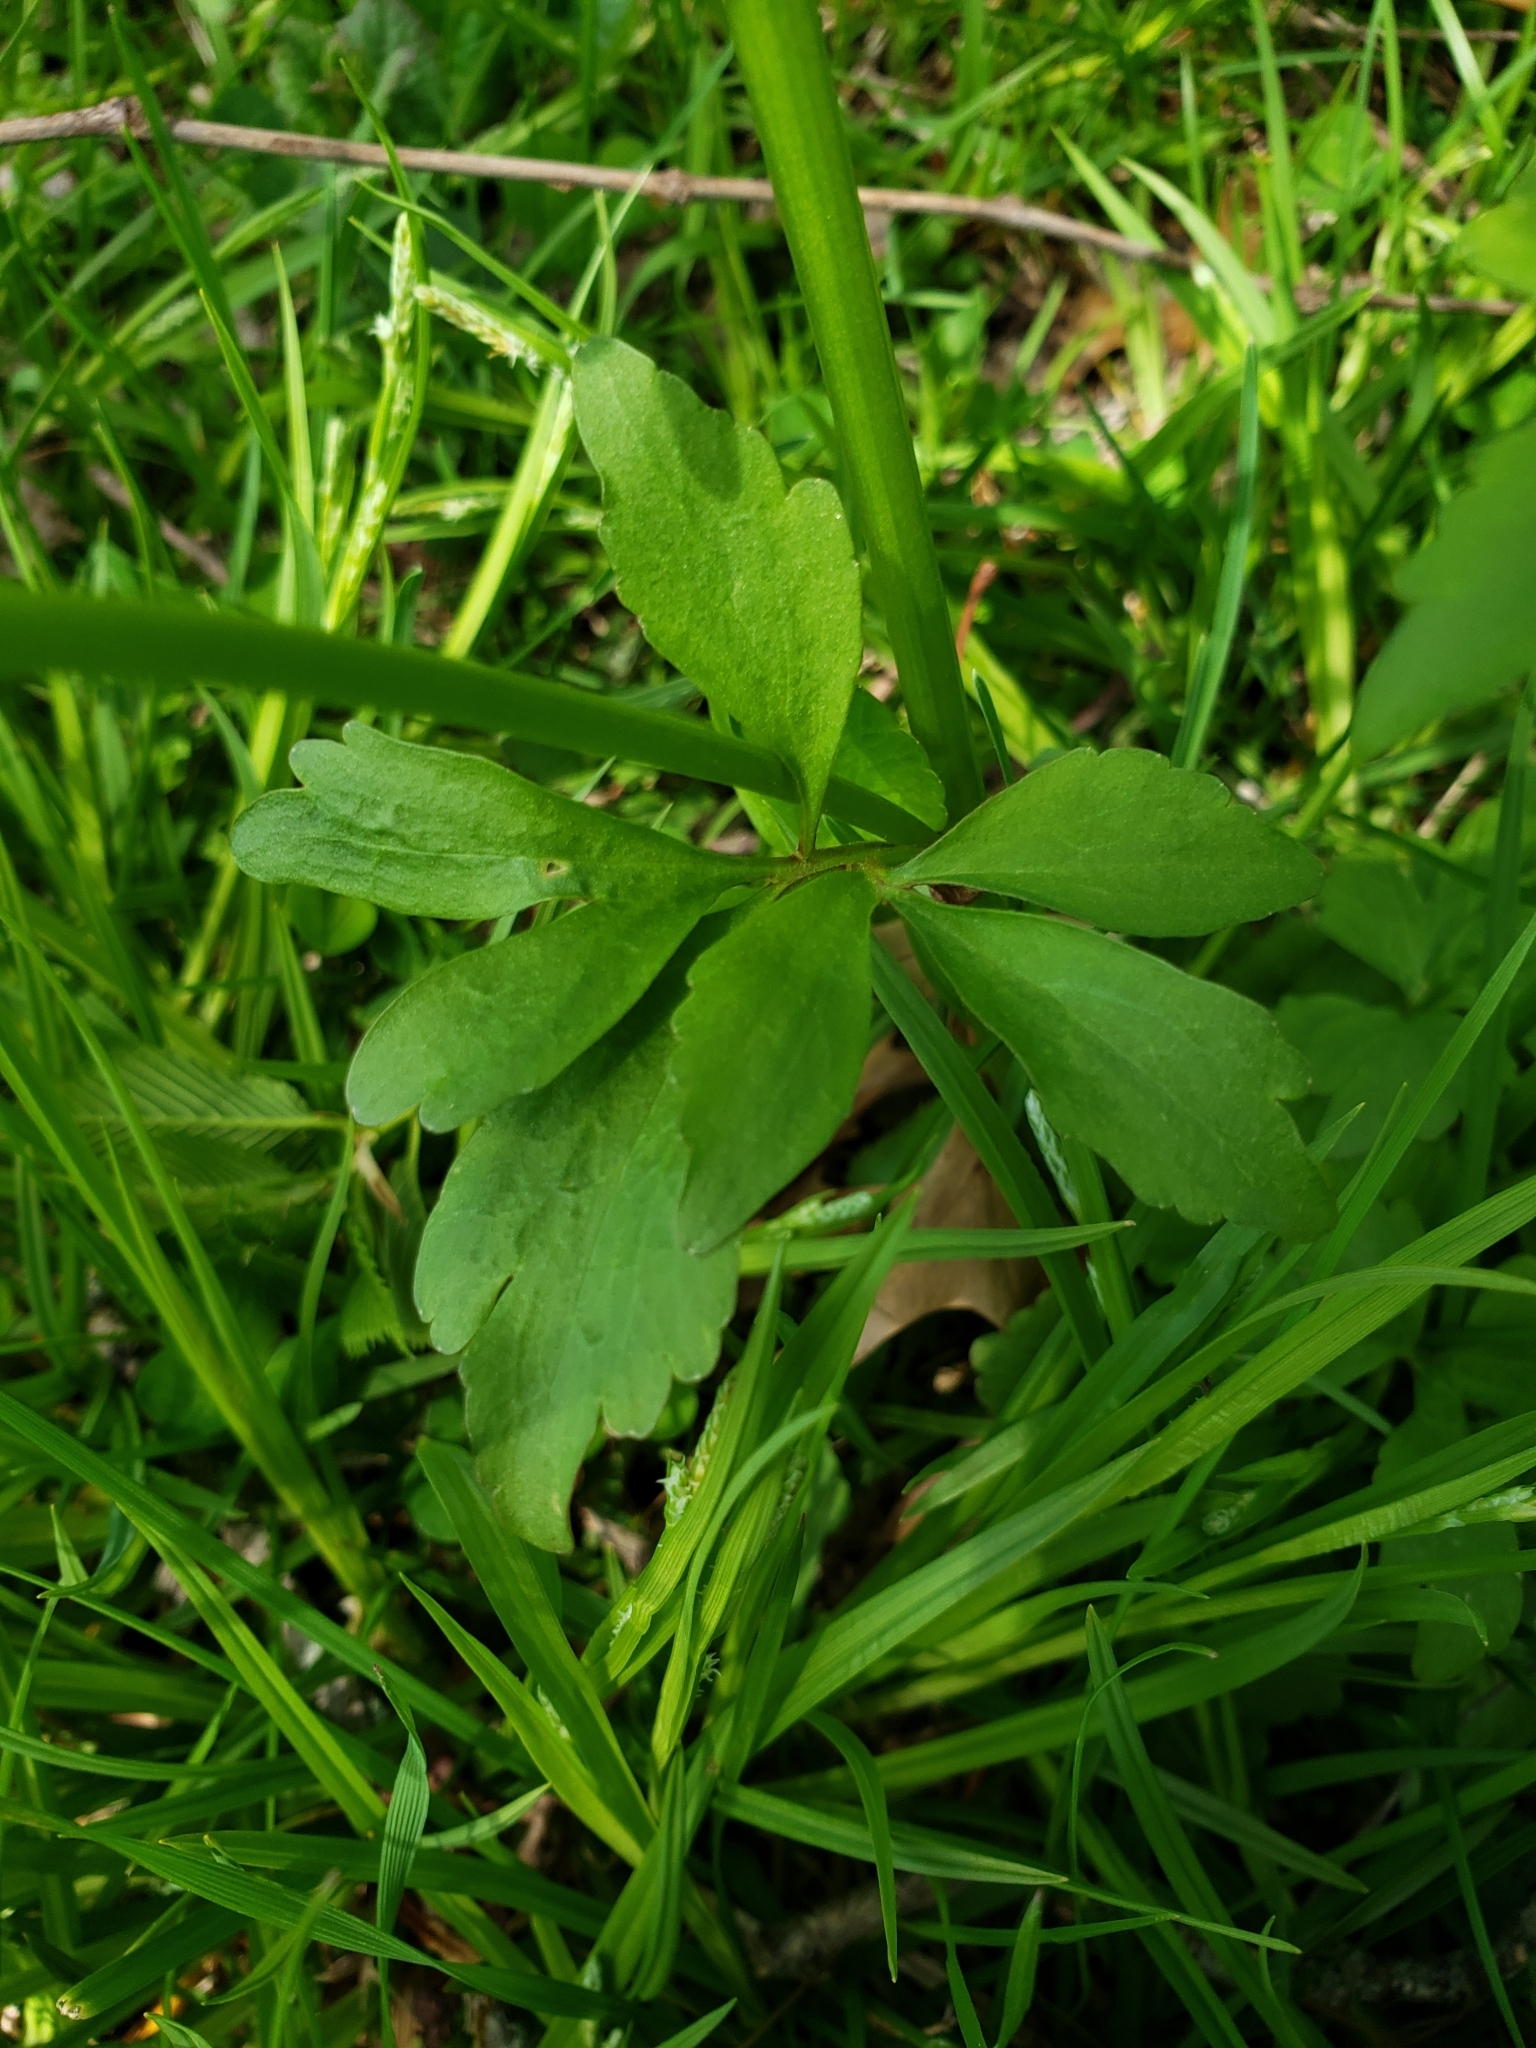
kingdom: Plantae
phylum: Tracheophyta
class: Magnoliopsida
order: Ranunculales
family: Ranunculaceae
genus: Ranunculus
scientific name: Ranunculus abortivus
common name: Early wood buttercup
